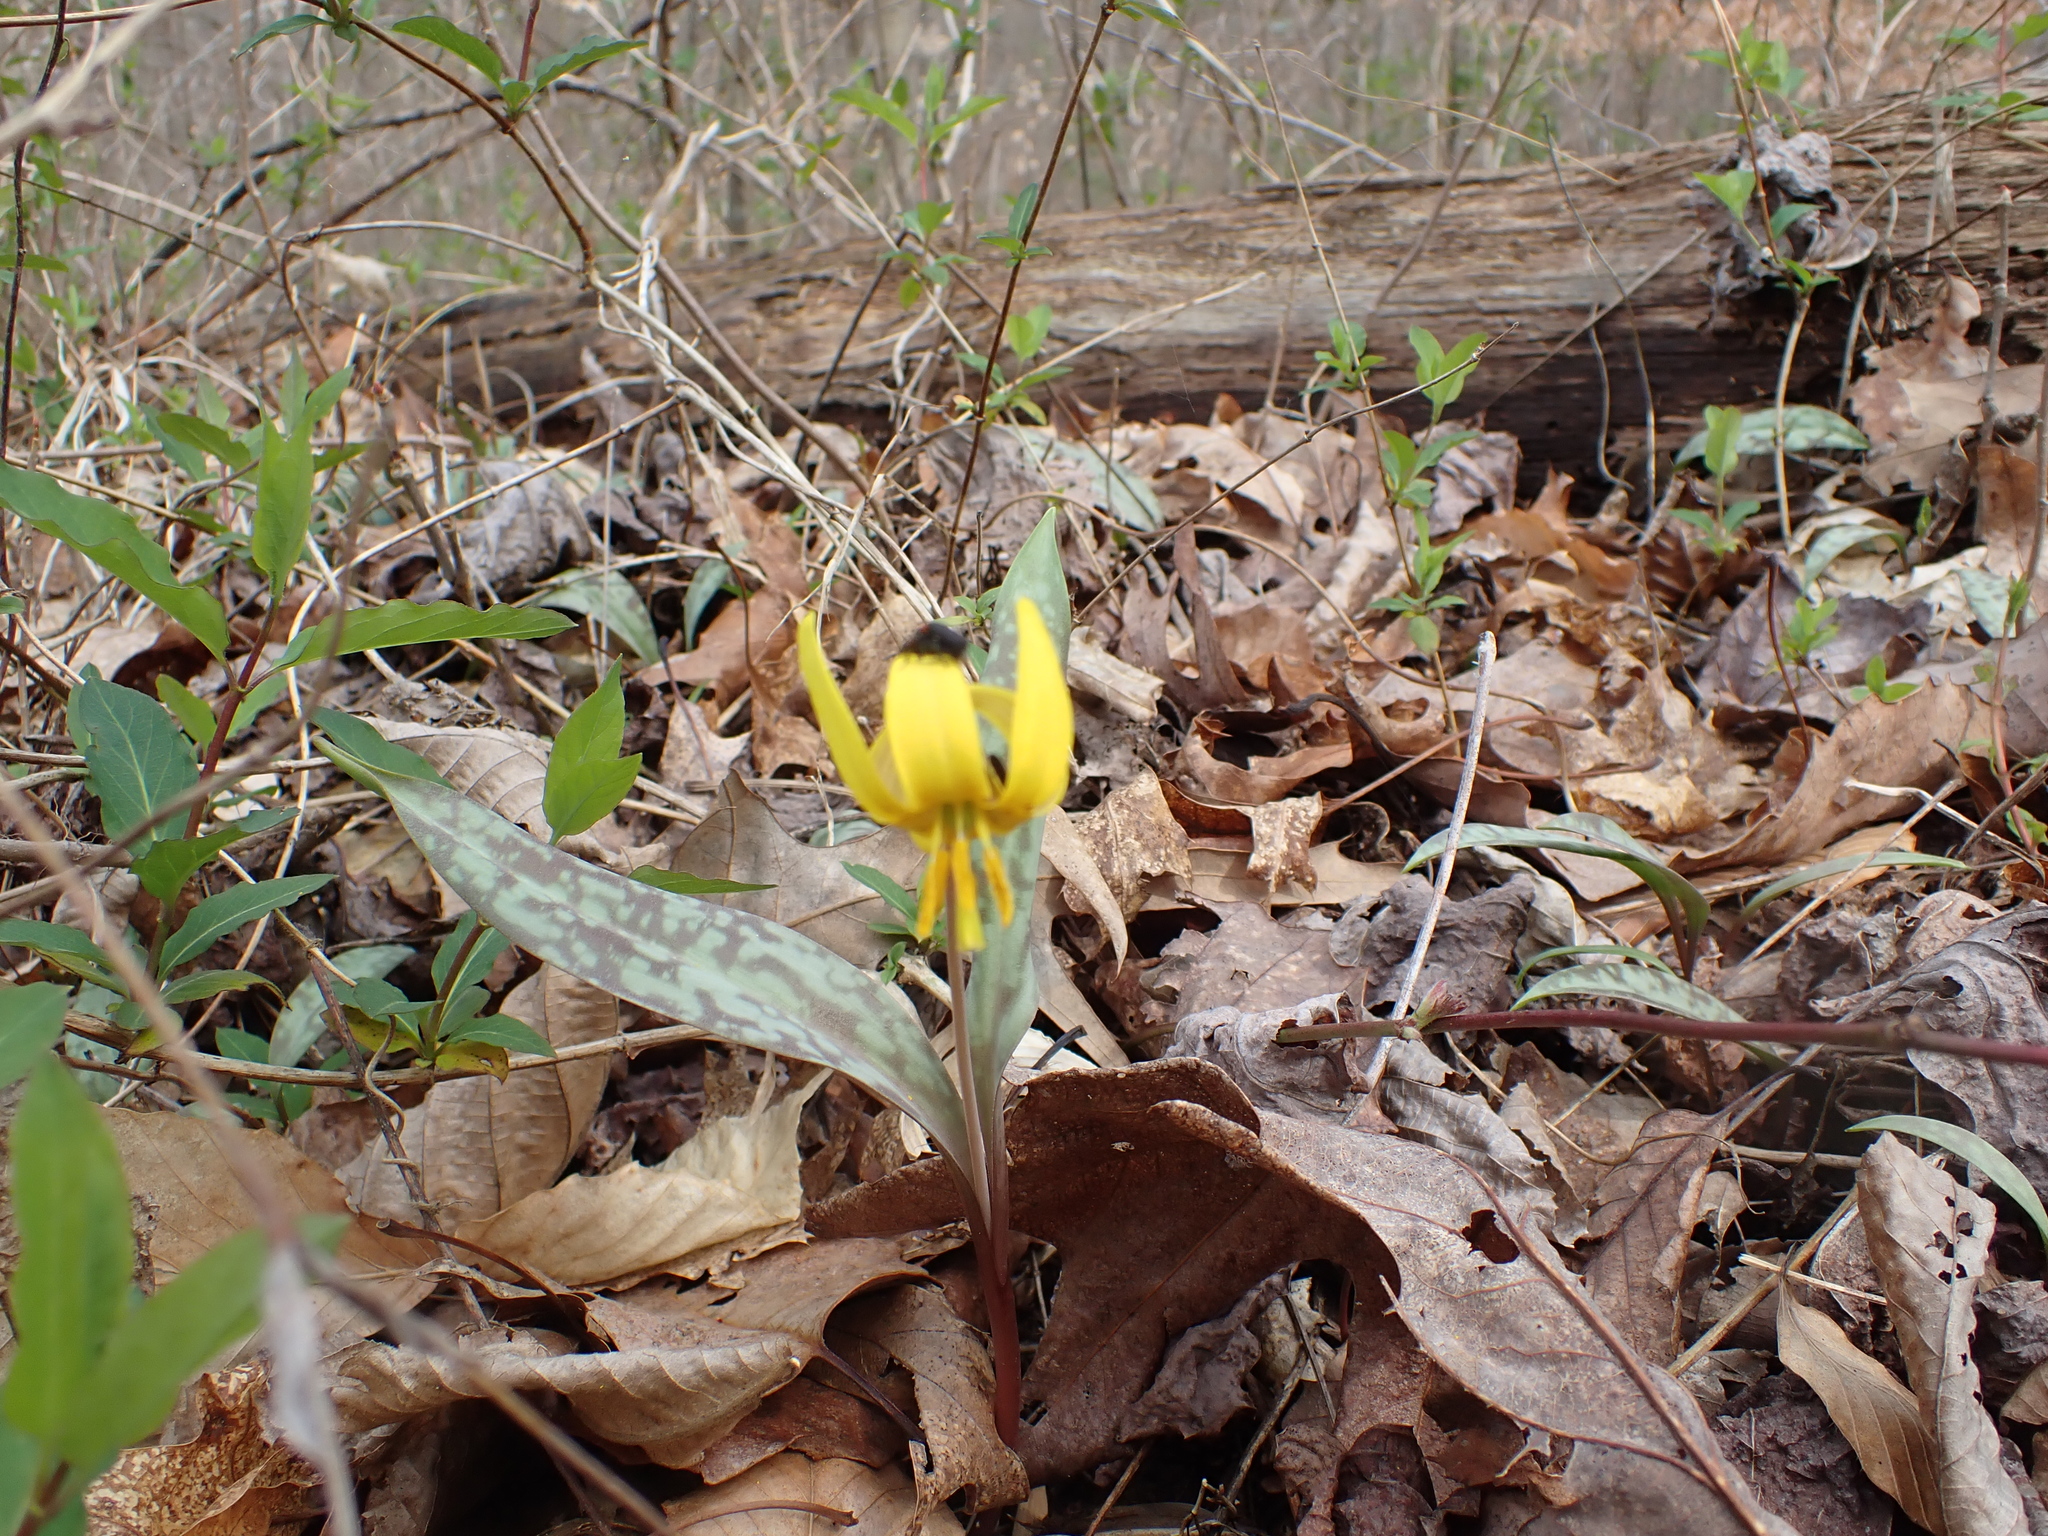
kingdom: Plantae
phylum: Tracheophyta
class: Liliopsida
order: Liliales
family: Liliaceae
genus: Erythronium
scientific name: Erythronium americanum
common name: Yellow adder's-tongue
